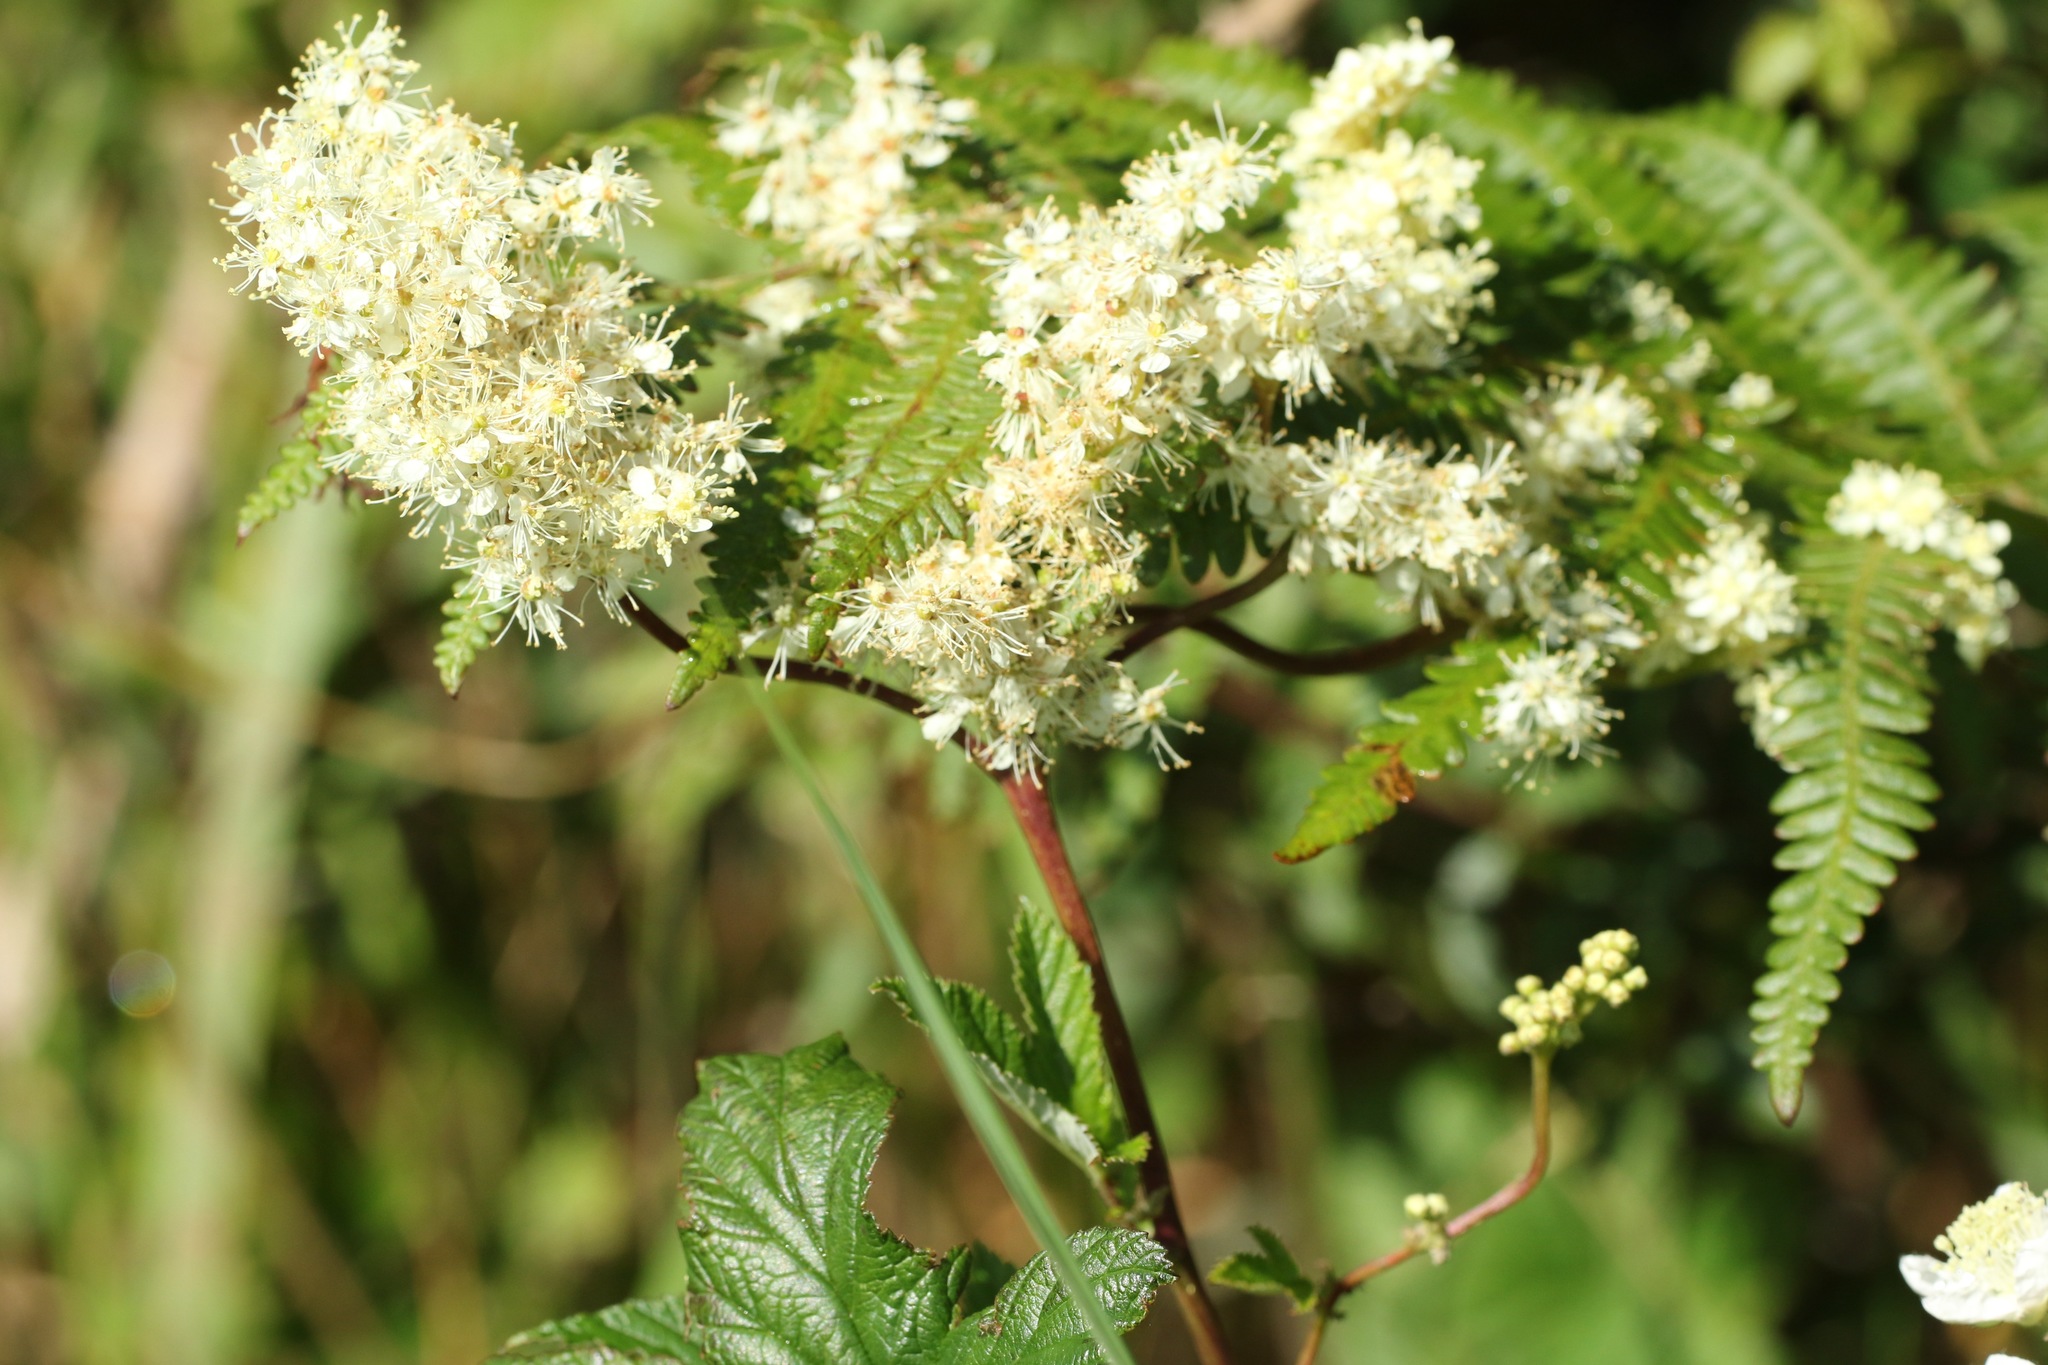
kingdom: Plantae
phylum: Tracheophyta
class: Magnoliopsida
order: Rosales
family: Rosaceae
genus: Filipendula
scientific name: Filipendula ulmaria
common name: Meadowsweet
